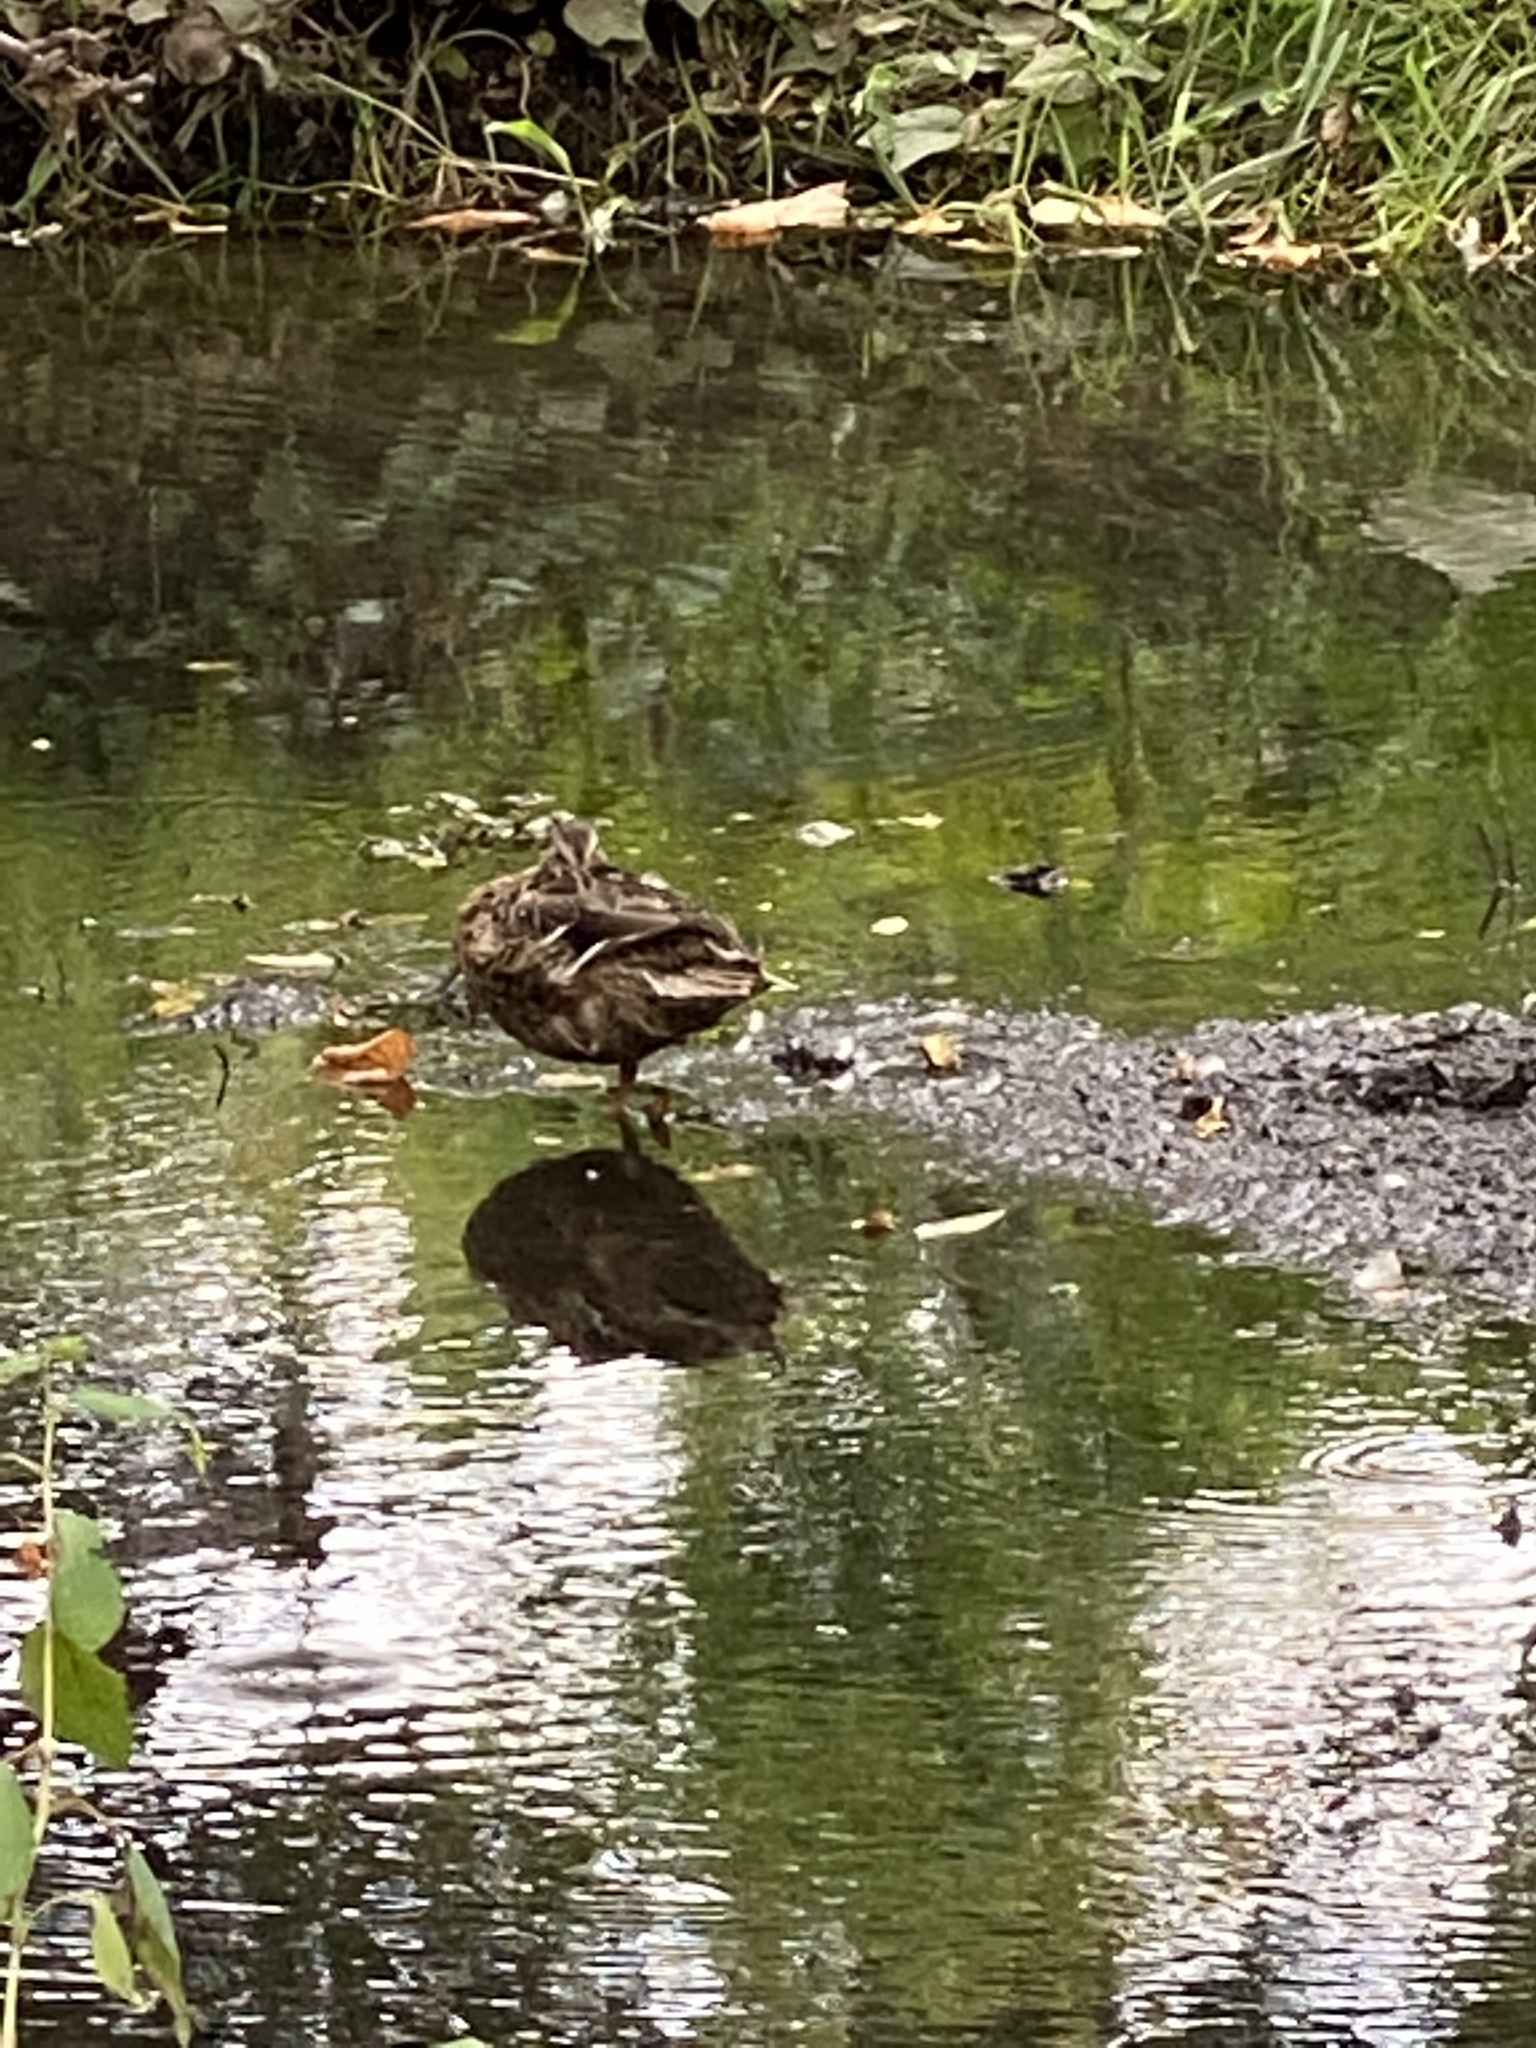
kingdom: Animalia
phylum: Chordata
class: Aves
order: Anseriformes
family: Anatidae
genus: Anas
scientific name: Anas platyrhynchos
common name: Mallard
